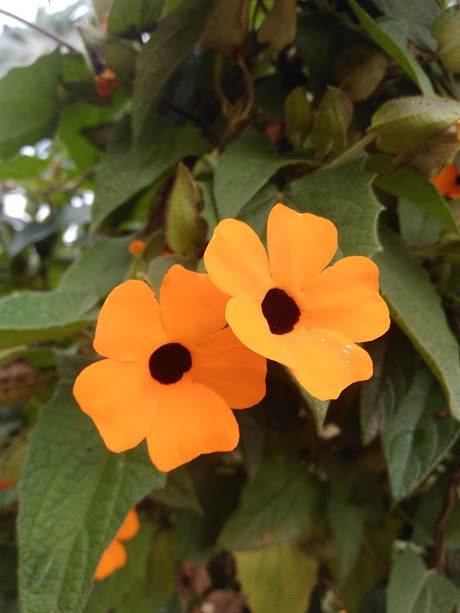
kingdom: Plantae
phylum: Tracheophyta
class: Magnoliopsida
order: Lamiales
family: Acanthaceae
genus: Thunbergia
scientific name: Thunbergia alata
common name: Blackeyed susan vine
